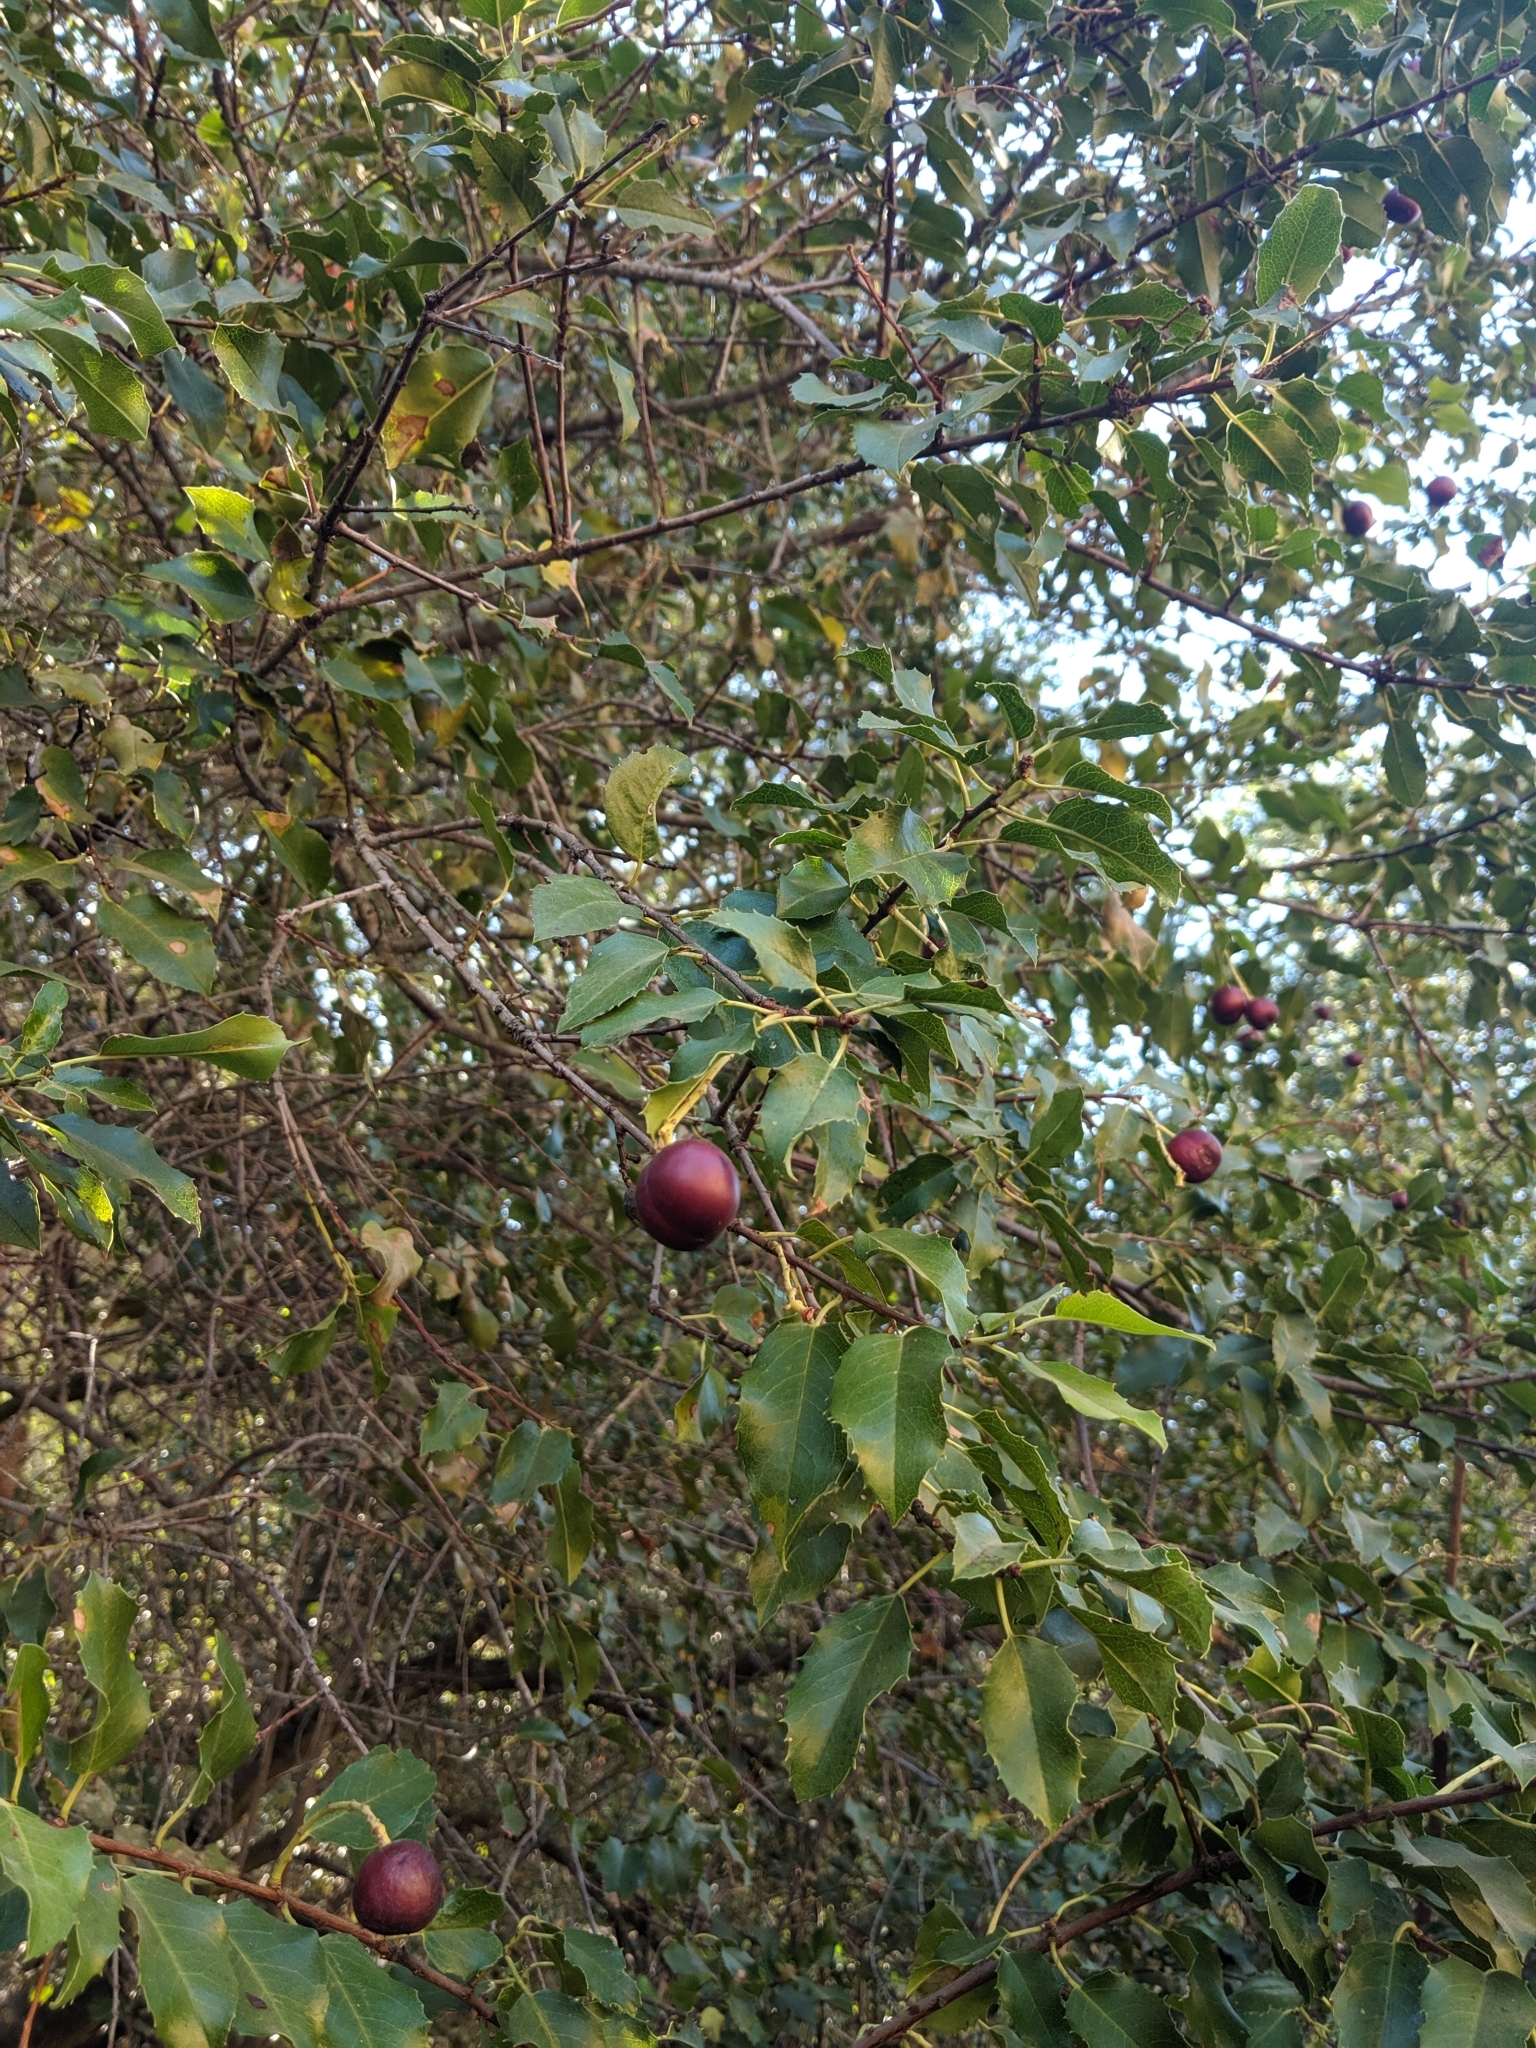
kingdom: Plantae
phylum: Tracheophyta
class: Magnoliopsida
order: Rosales
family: Rosaceae
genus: Prunus
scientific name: Prunus ilicifolia
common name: Hollyleaf cherry
